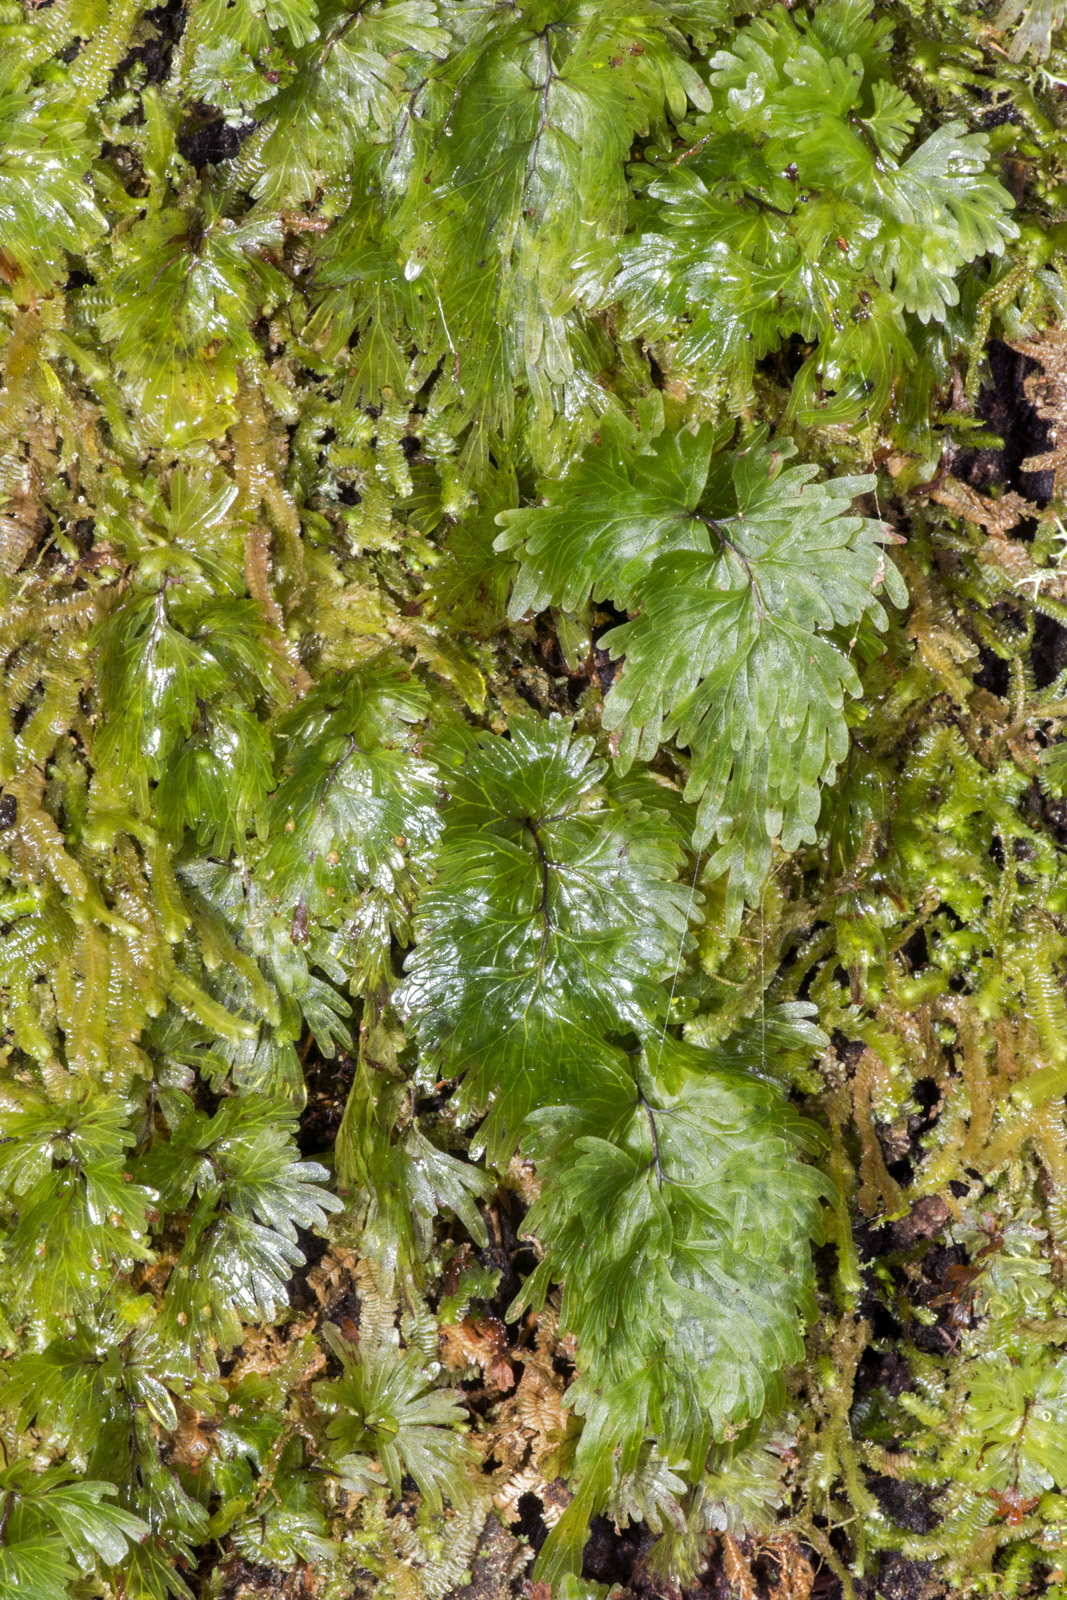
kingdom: Plantae
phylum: Tracheophyta
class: Polypodiopsida
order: Hymenophyllales
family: Hymenophyllaceae
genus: Hymenophyllum
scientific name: Hymenophyllum flabellatum
